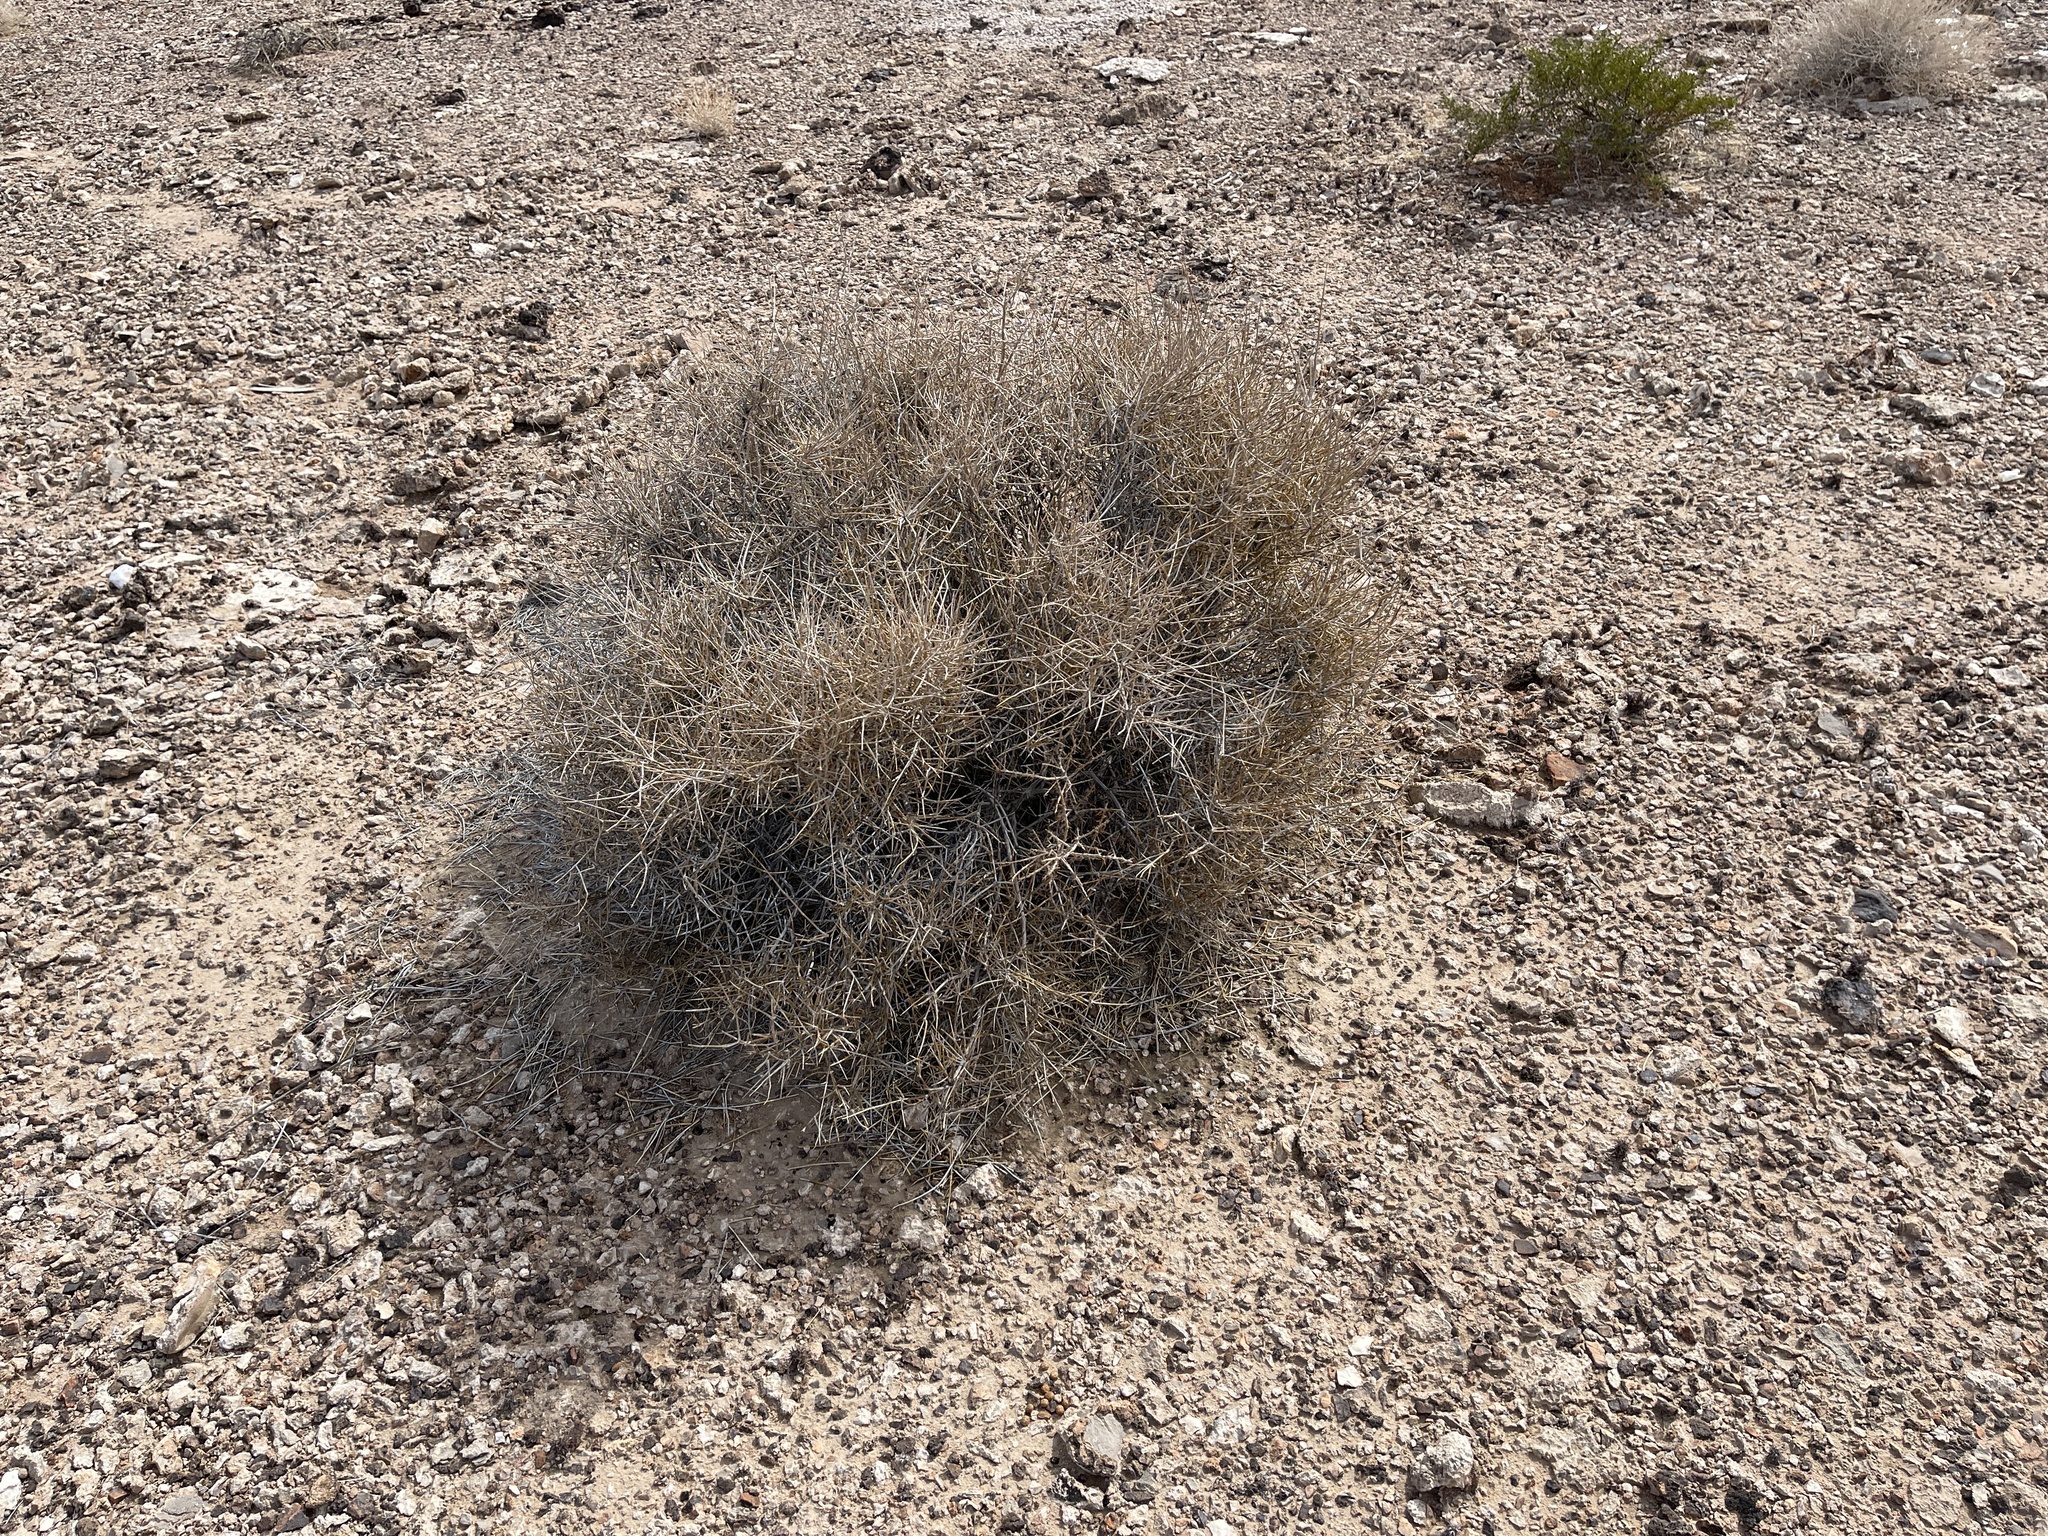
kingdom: Plantae
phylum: Tracheophyta
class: Gnetopsida
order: Ephedrales
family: Ephedraceae
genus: Ephedra
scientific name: Ephedra nevadensis
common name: Gray ephedra
